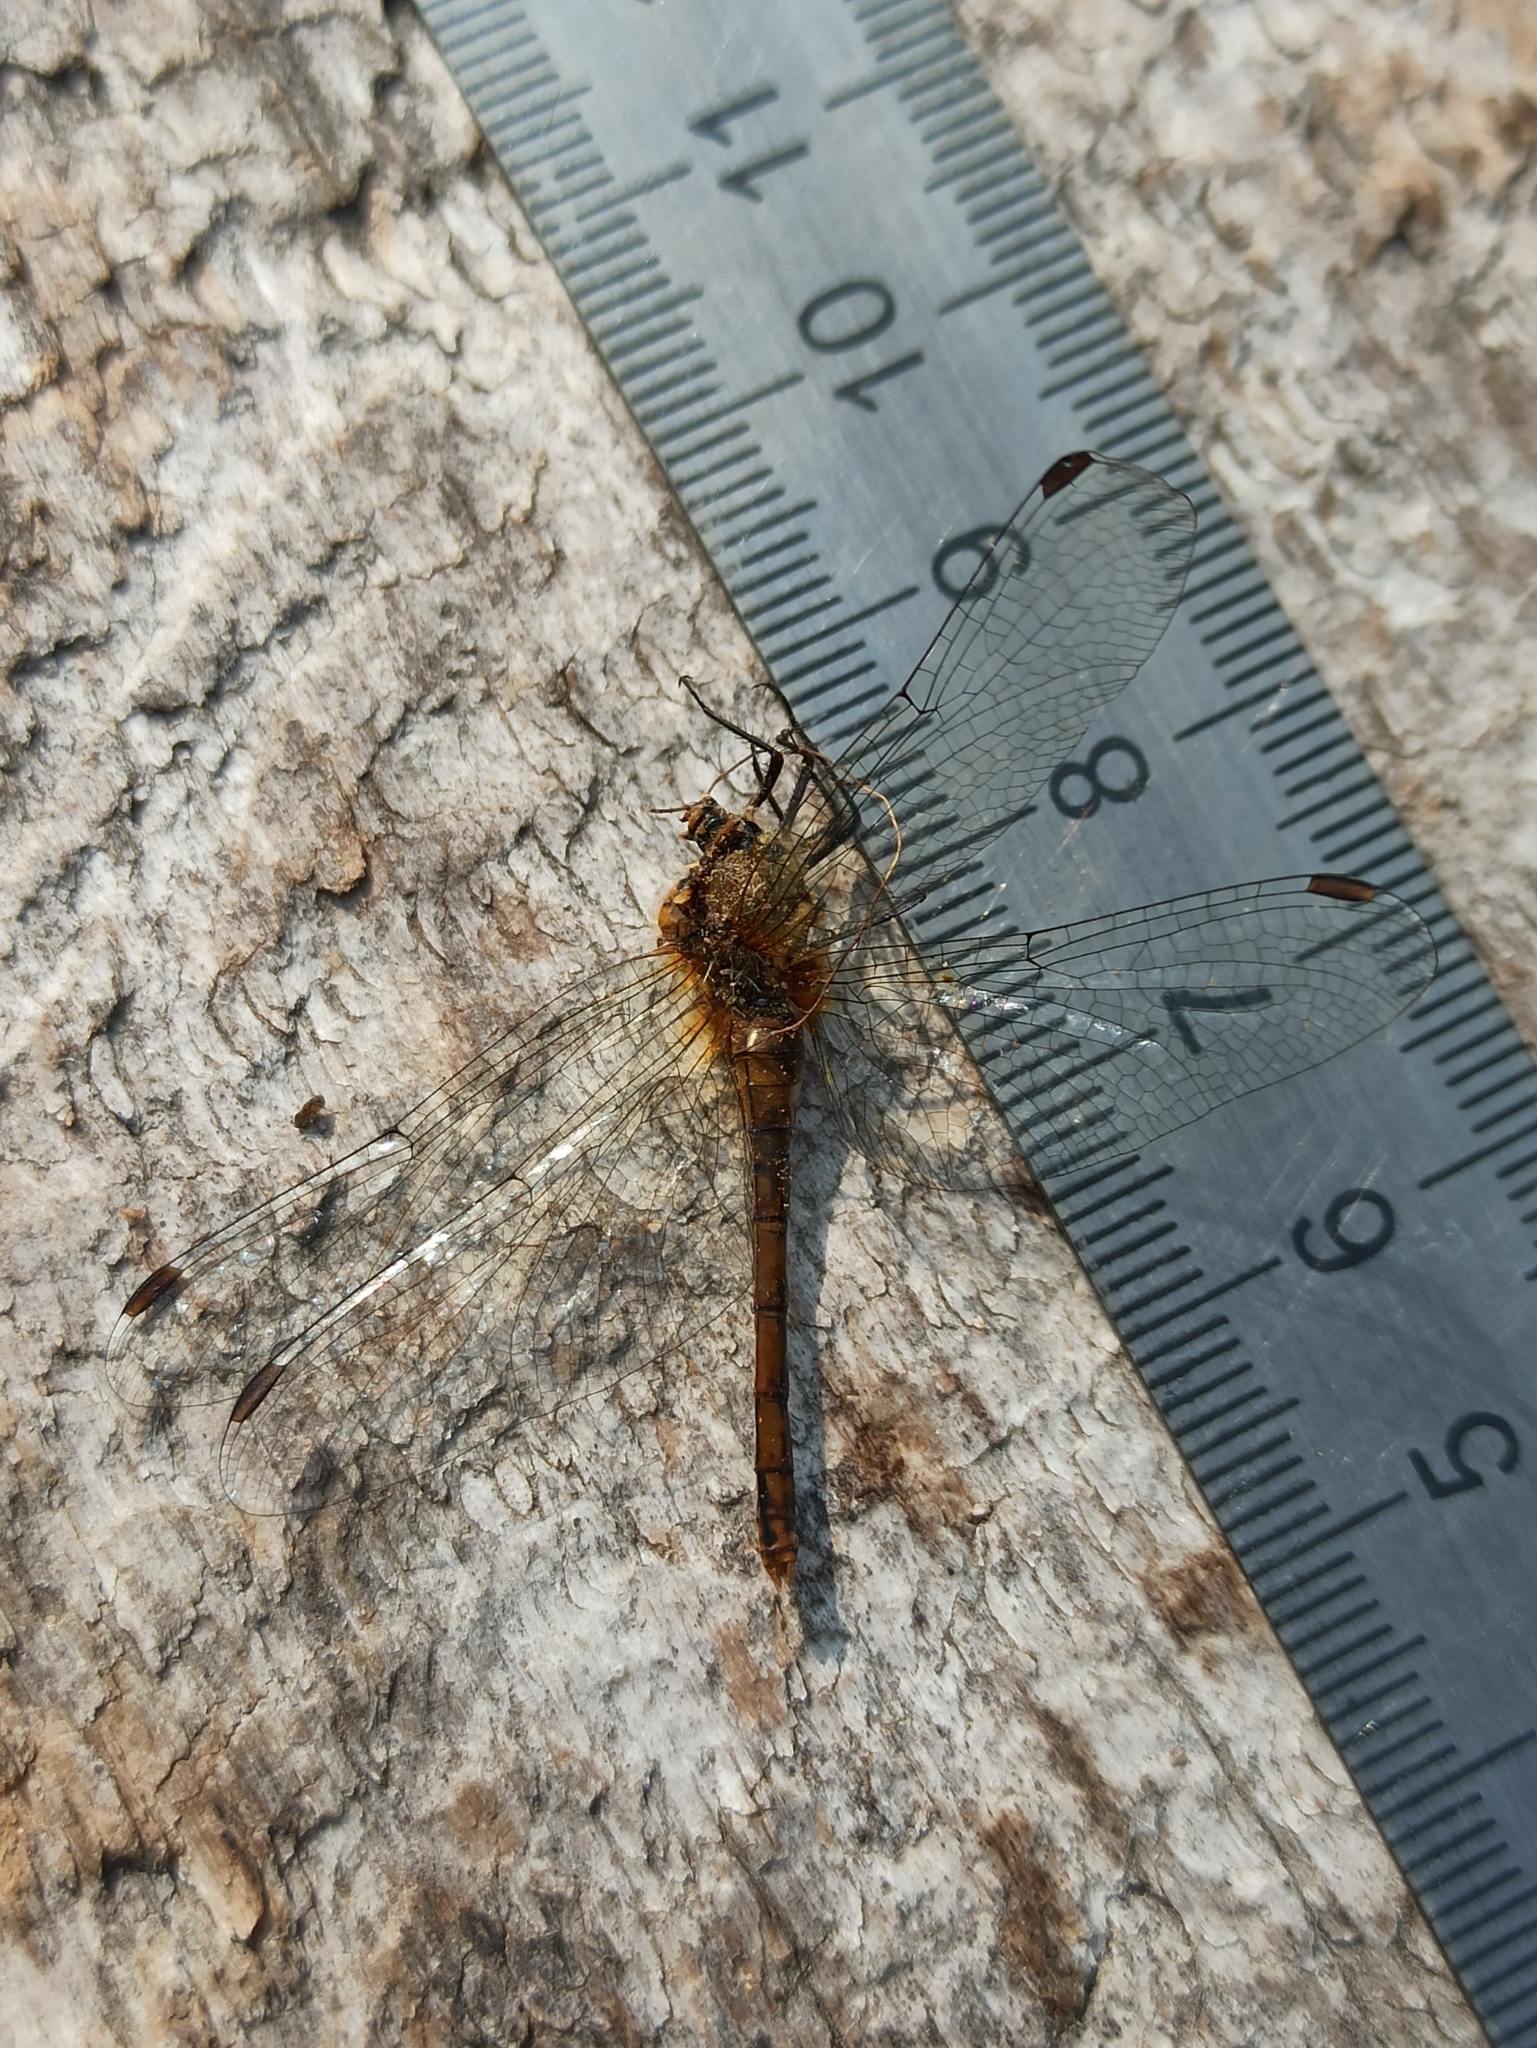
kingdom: Animalia
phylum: Arthropoda
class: Insecta
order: Odonata
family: Libellulidae
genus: Sympetrum
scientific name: Sympetrum sanguineum
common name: Ruddy darter
